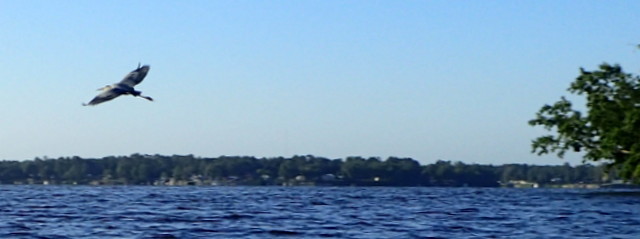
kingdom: Animalia
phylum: Chordata
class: Aves
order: Pelecaniformes
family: Ardeidae
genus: Ardea
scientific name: Ardea herodias
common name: Great blue heron
